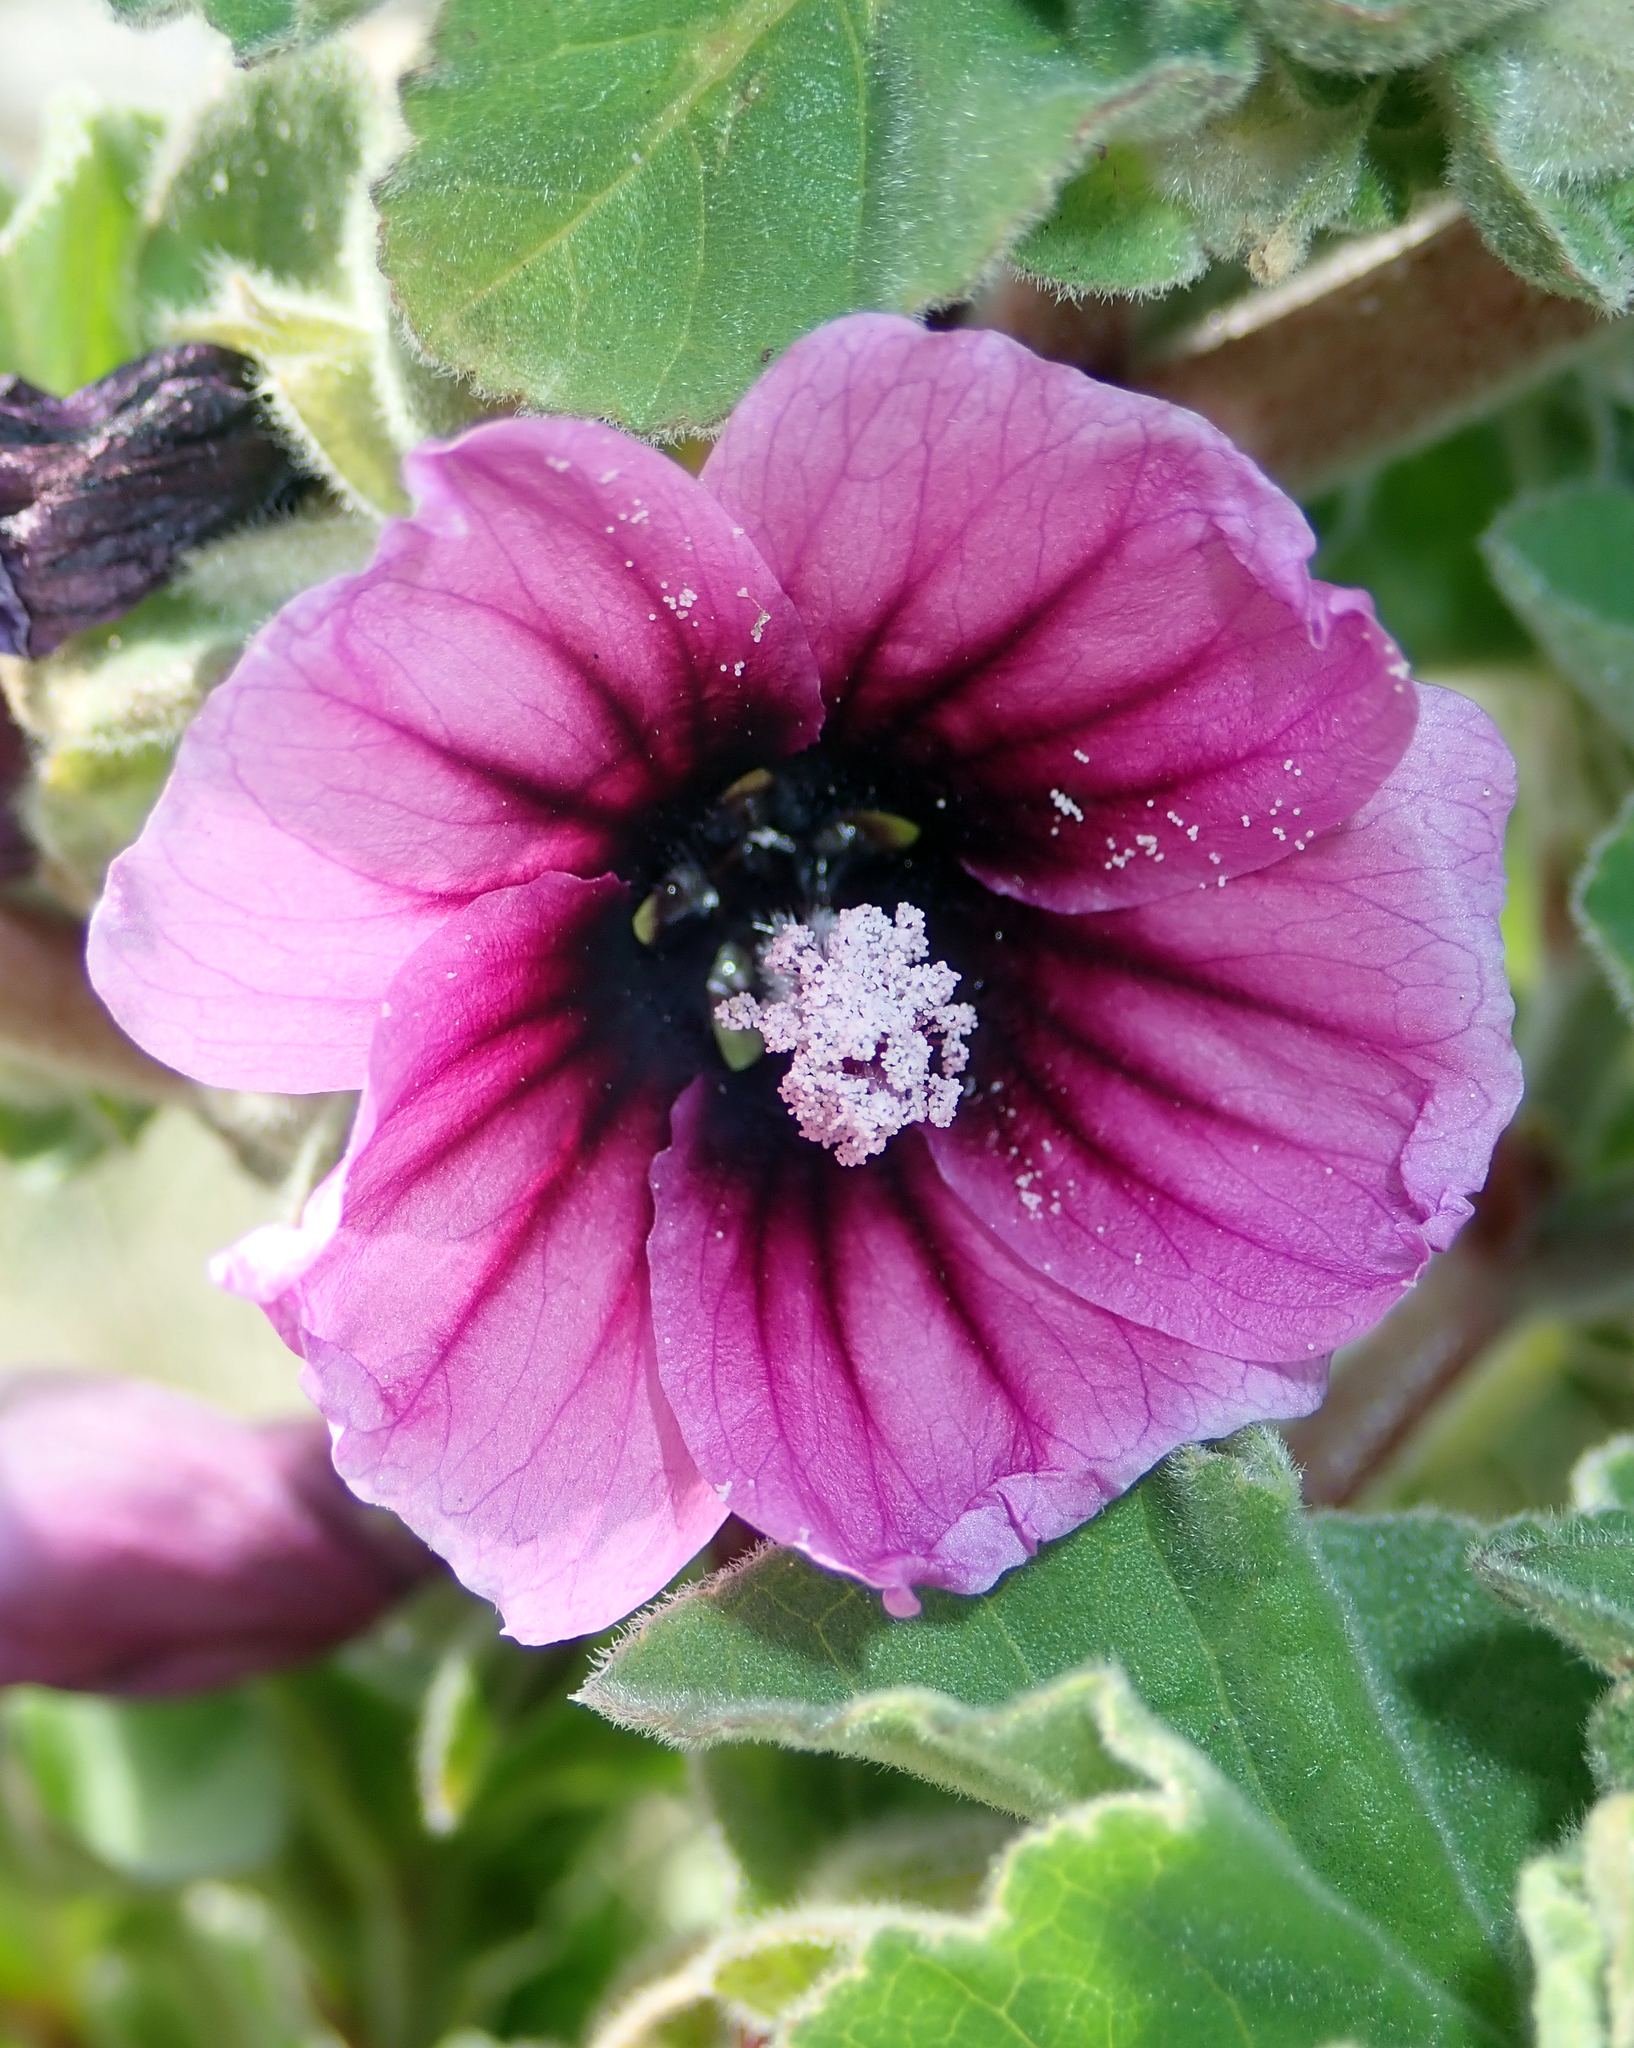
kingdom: Plantae
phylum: Tracheophyta
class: Magnoliopsida
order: Malvales
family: Malvaceae
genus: Malva
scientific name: Malva arborea
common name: Tree mallow
